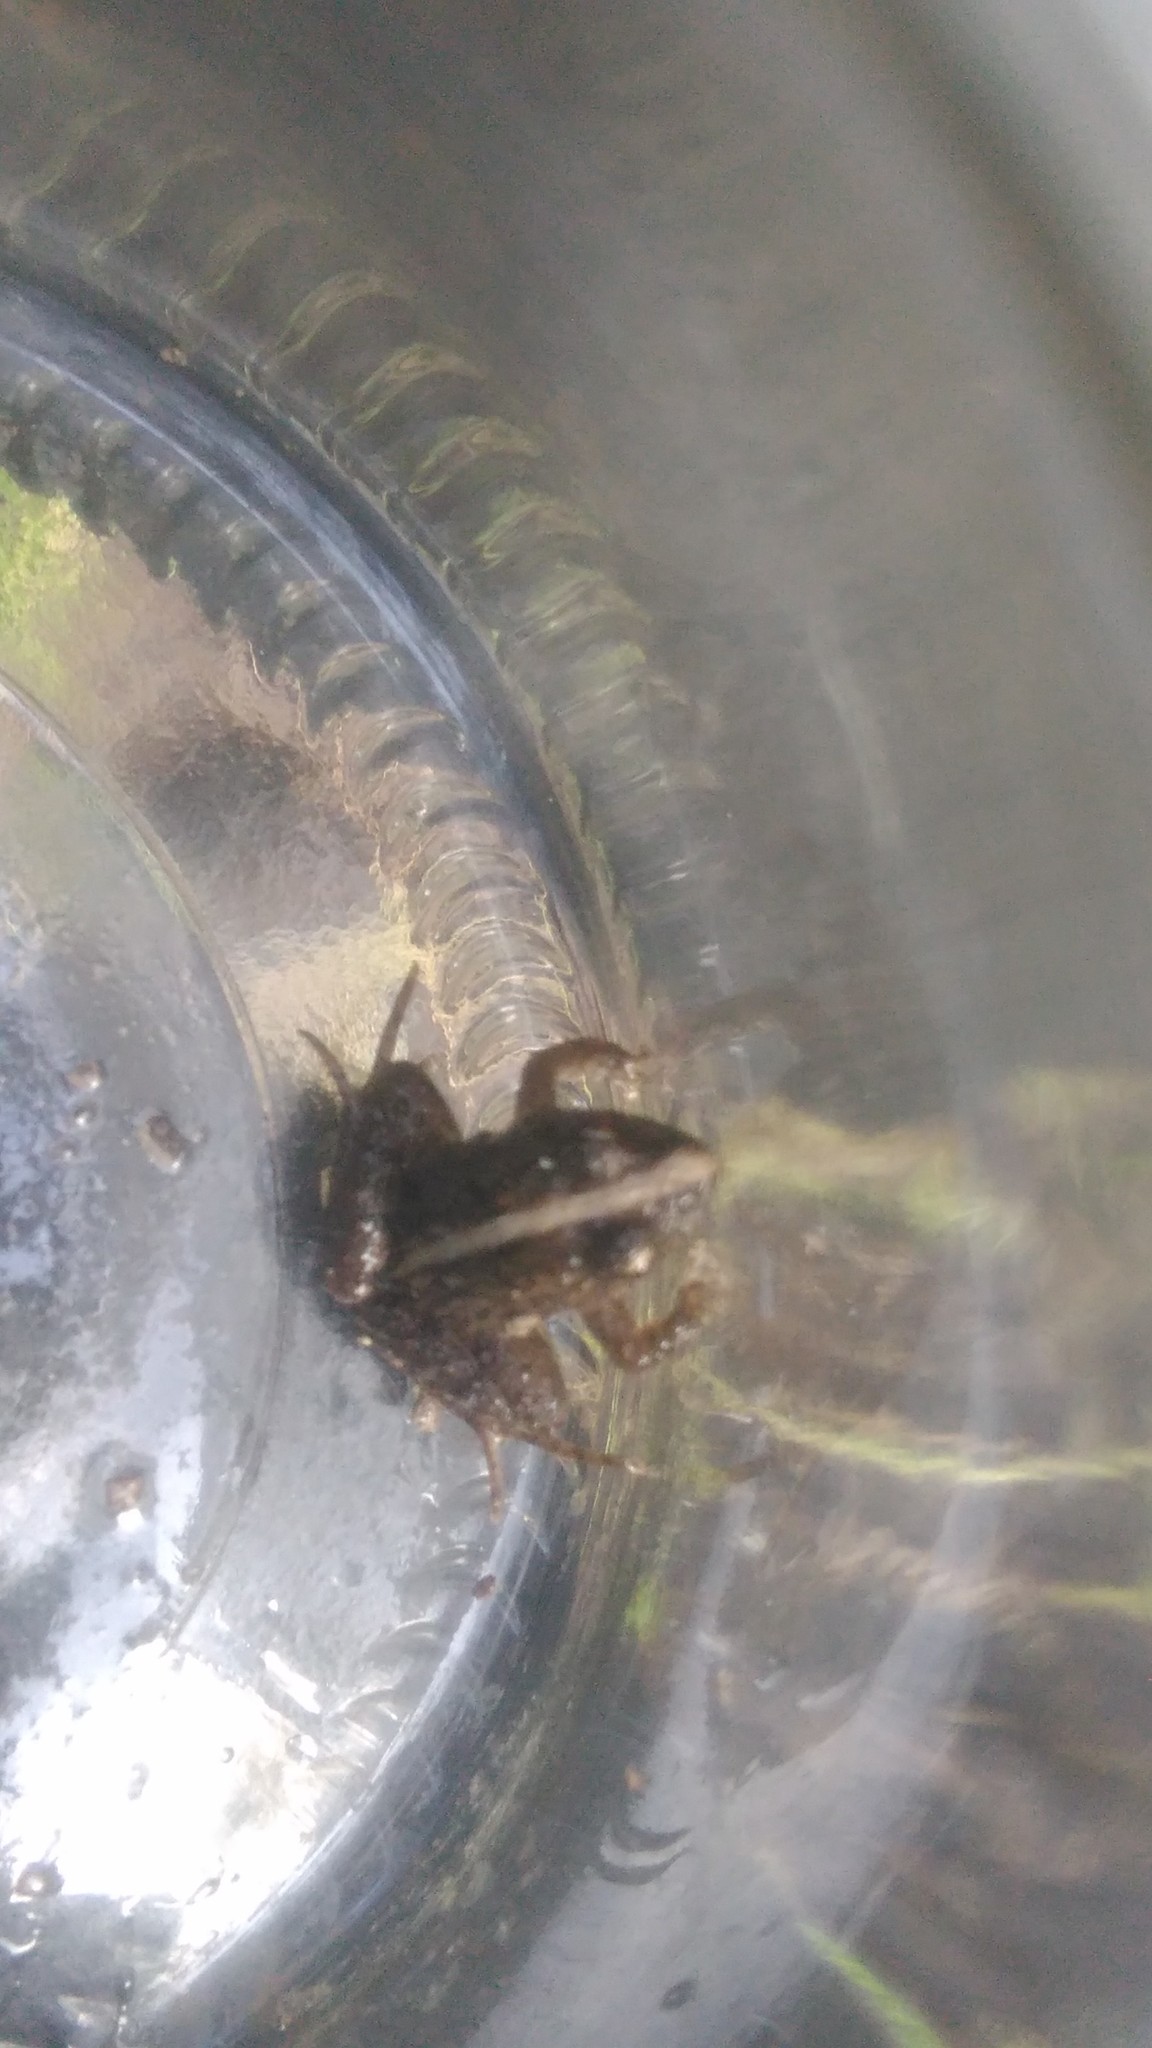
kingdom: Animalia
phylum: Chordata
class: Amphibia
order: Anura
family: Leptodactylidae
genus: Pseudopaludicola
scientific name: Pseudopaludicola falcipes
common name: Hensel’s swamp frog
